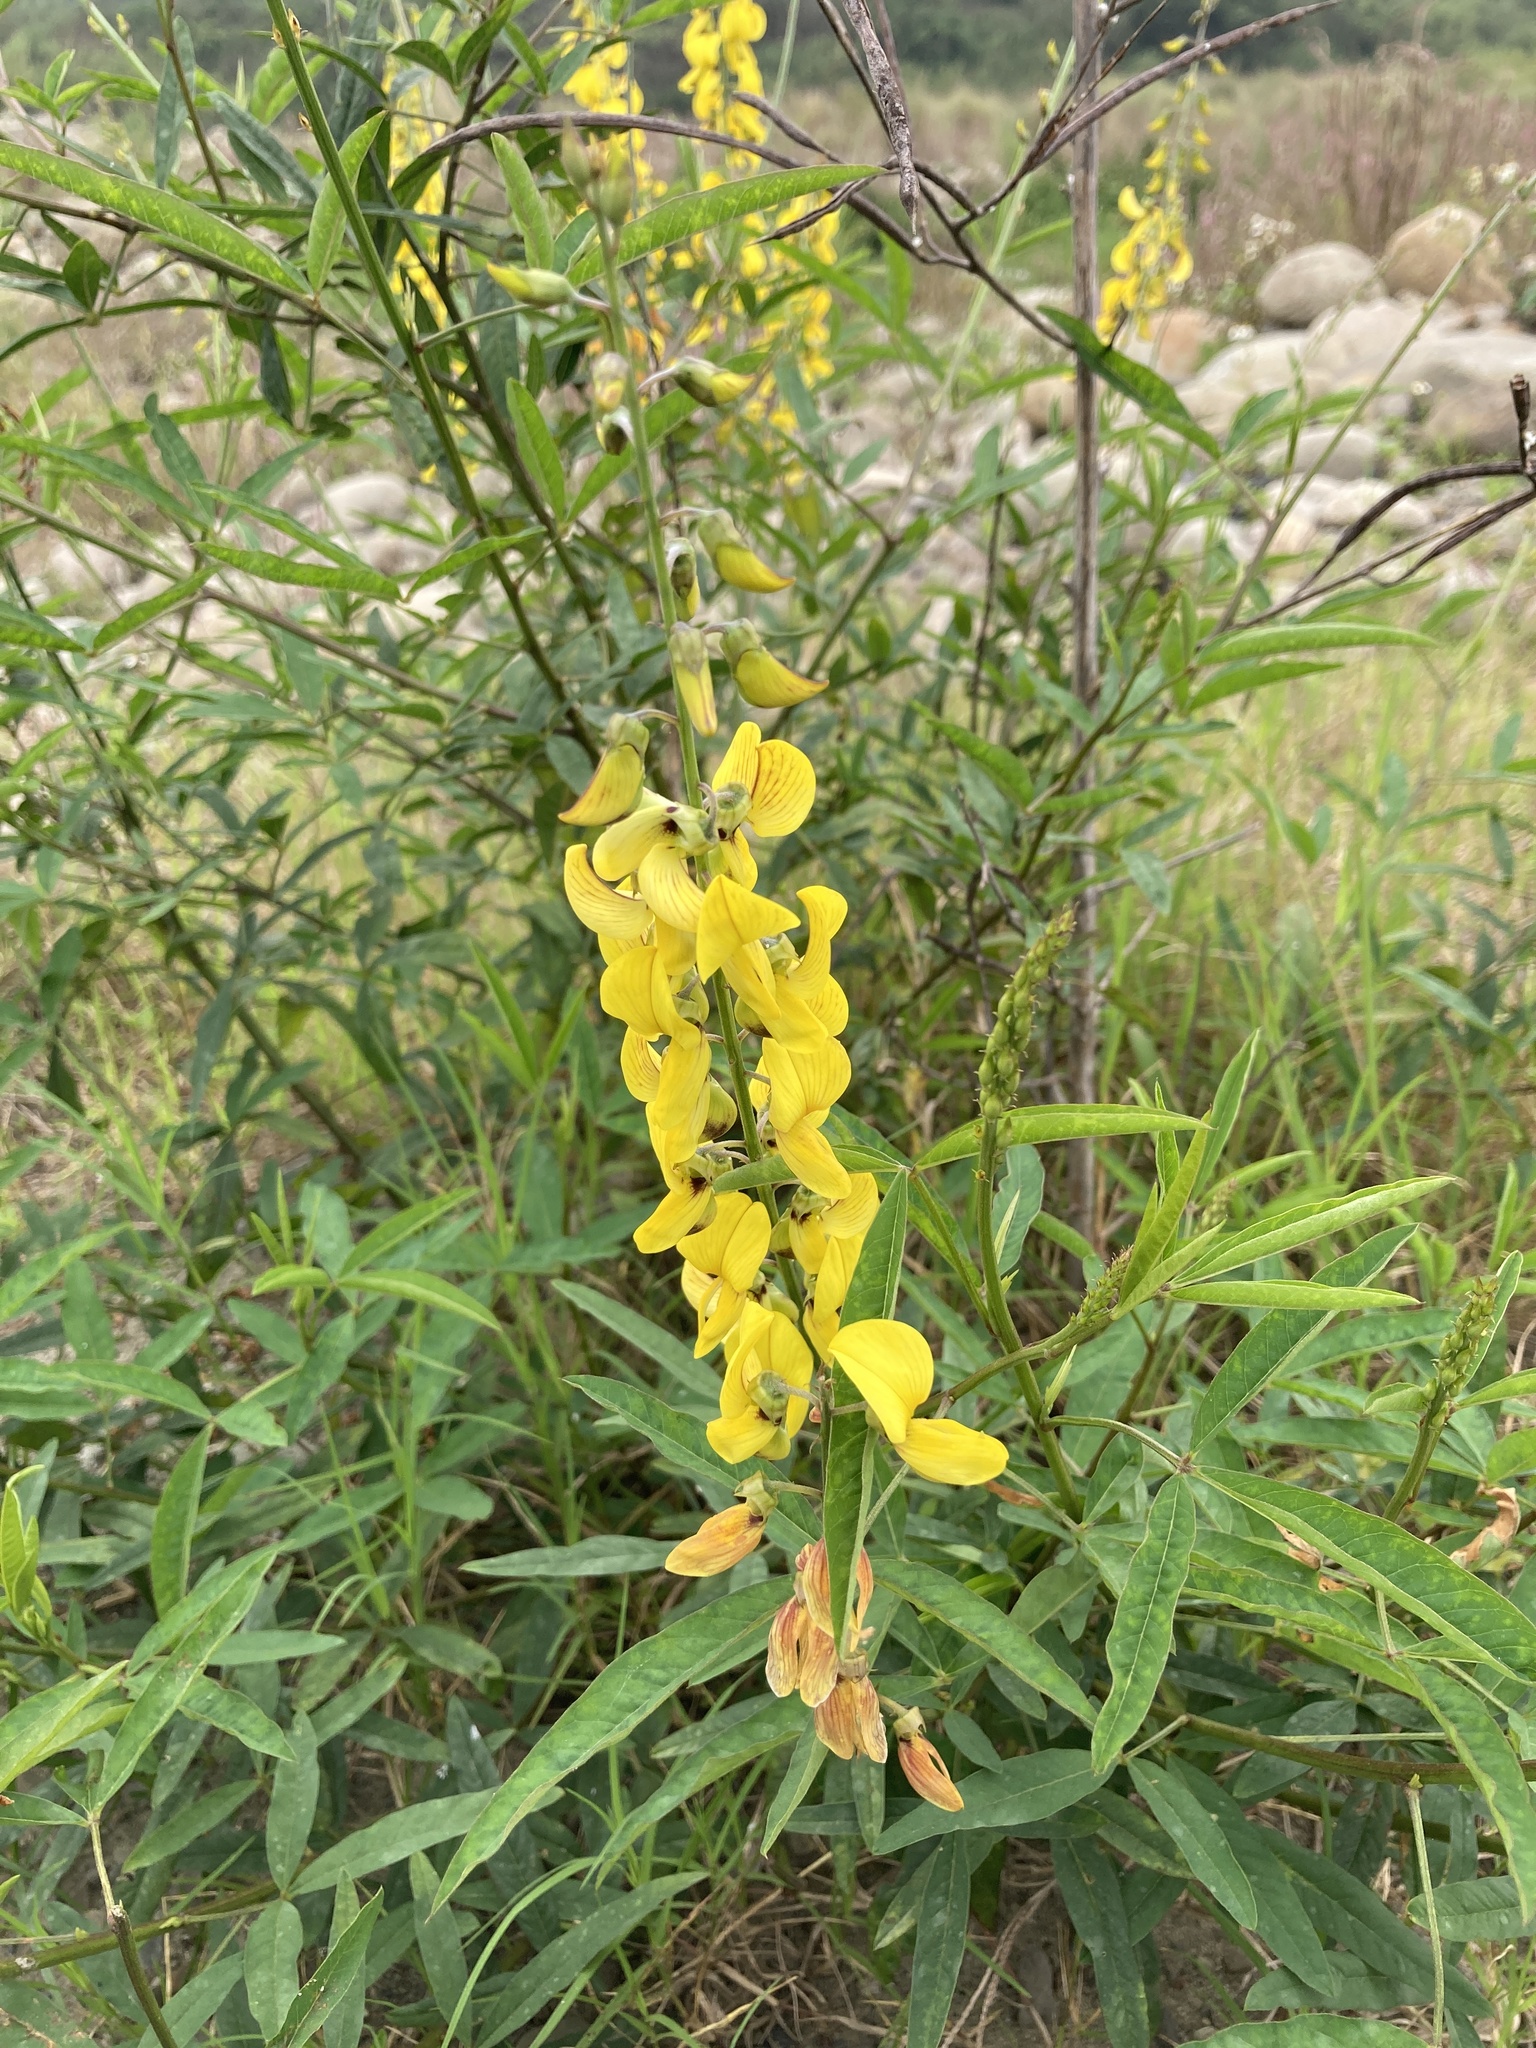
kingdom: Plantae
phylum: Tracheophyta
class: Magnoliopsida
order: Fabales
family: Fabaceae
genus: Crotalaria
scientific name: Crotalaria trichotoma
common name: West indian rattlebox
